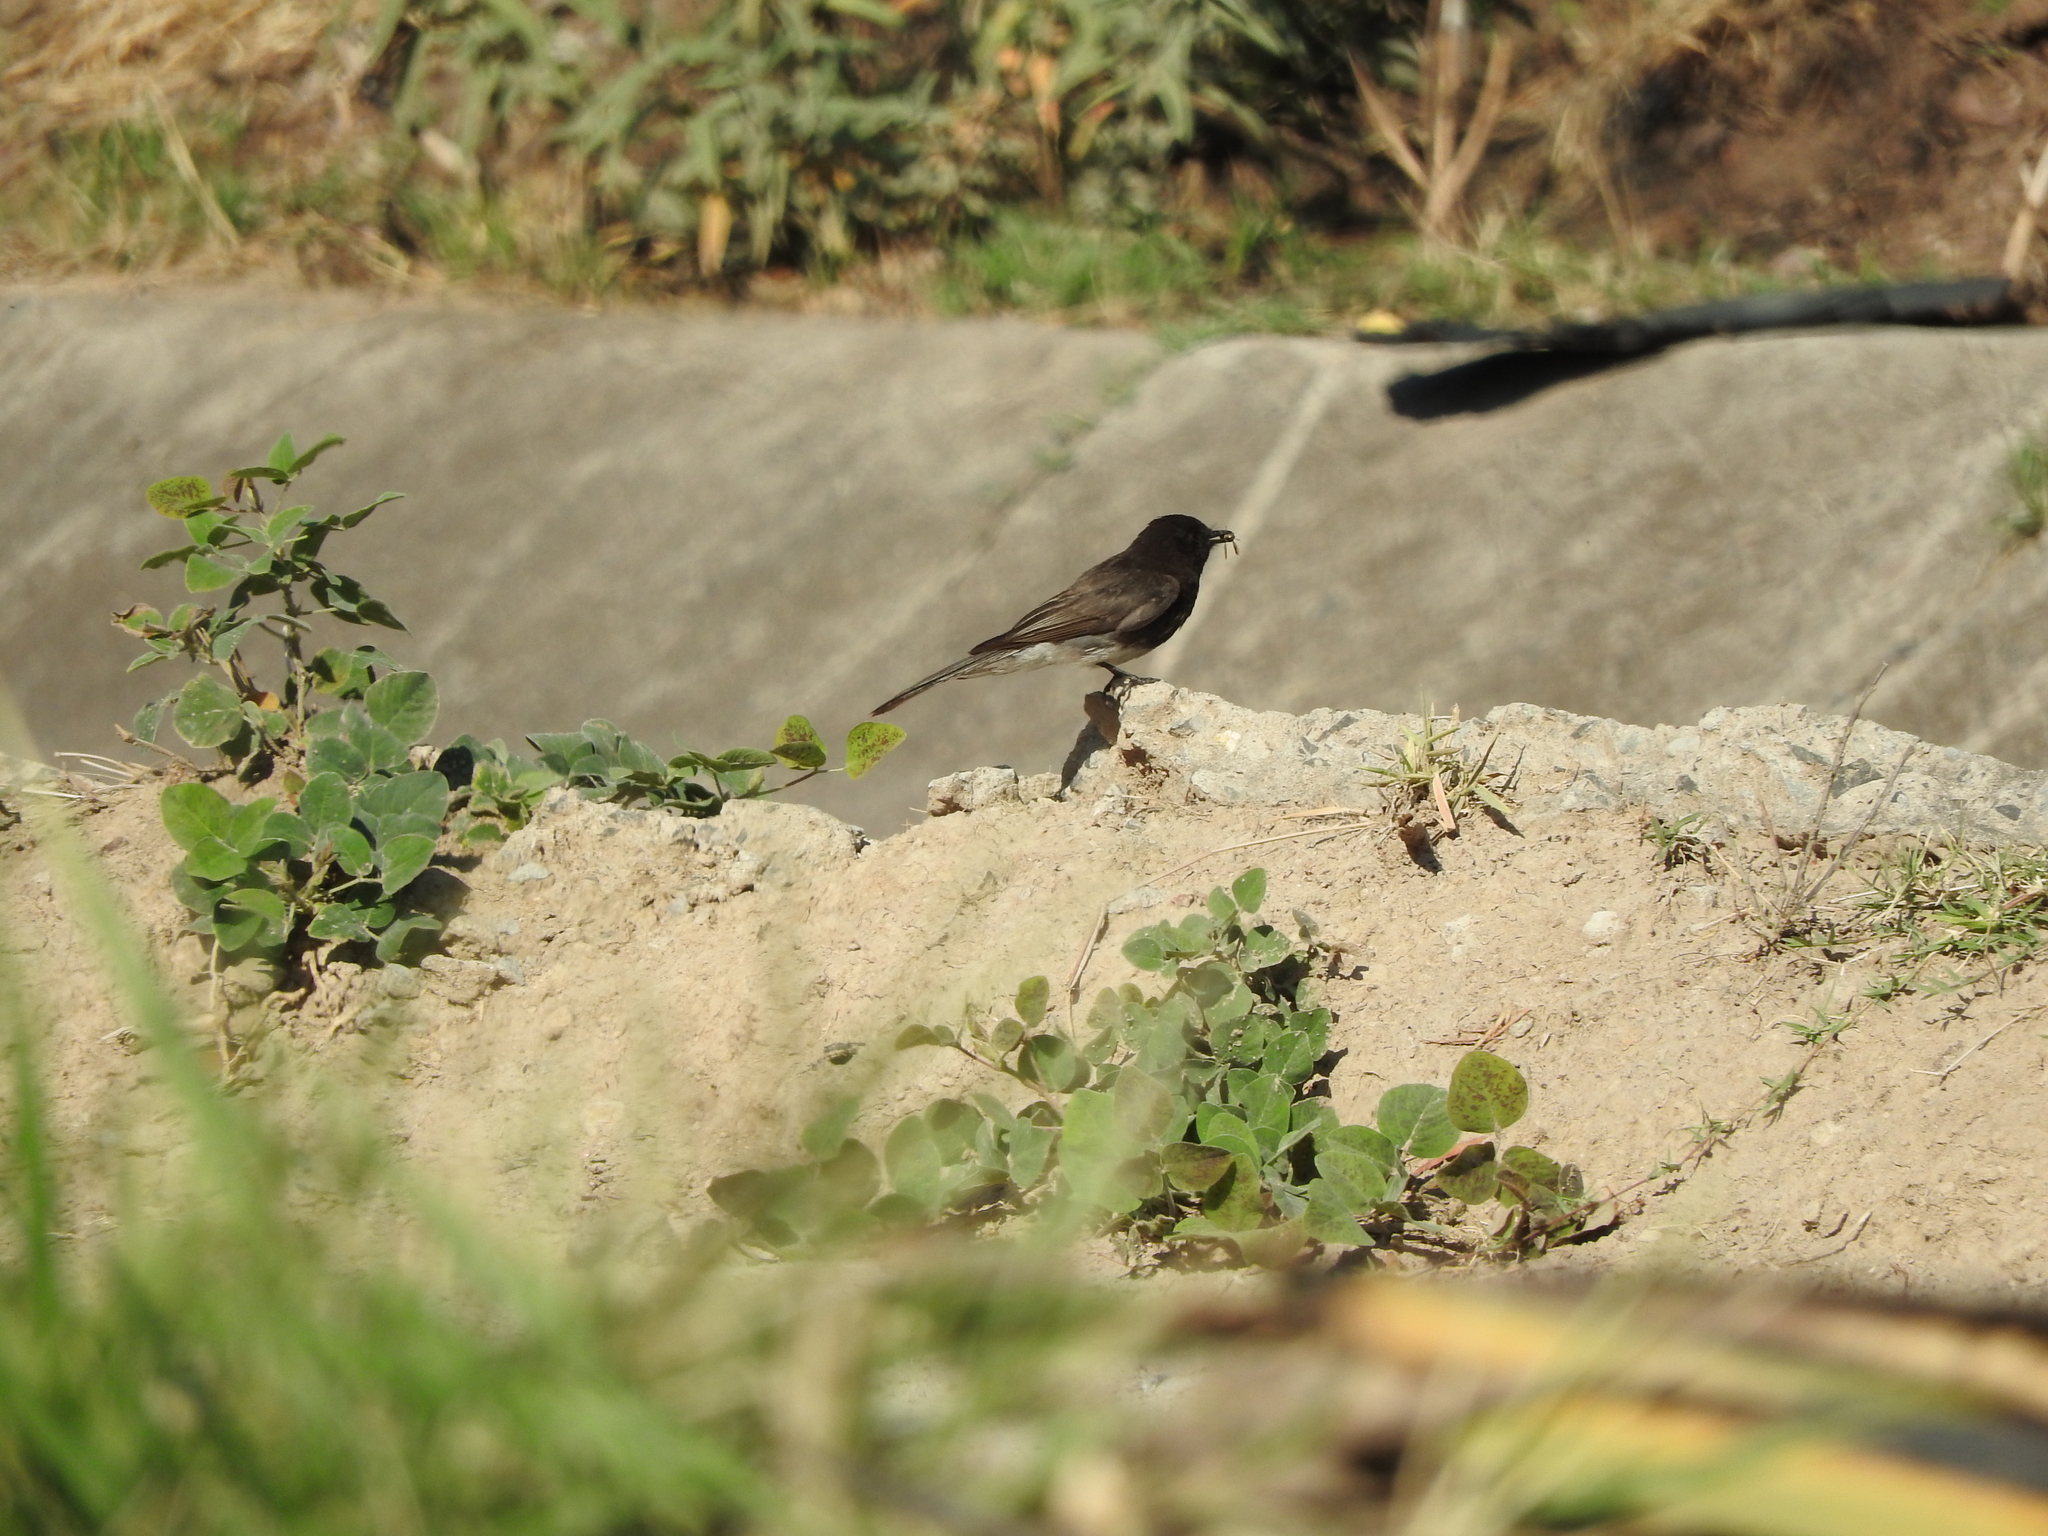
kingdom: Animalia
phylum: Chordata
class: Aves
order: Passeriformes
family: Tyrannidae
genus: Sayornis
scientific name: Sayornis nigricans
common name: Black phoebe
